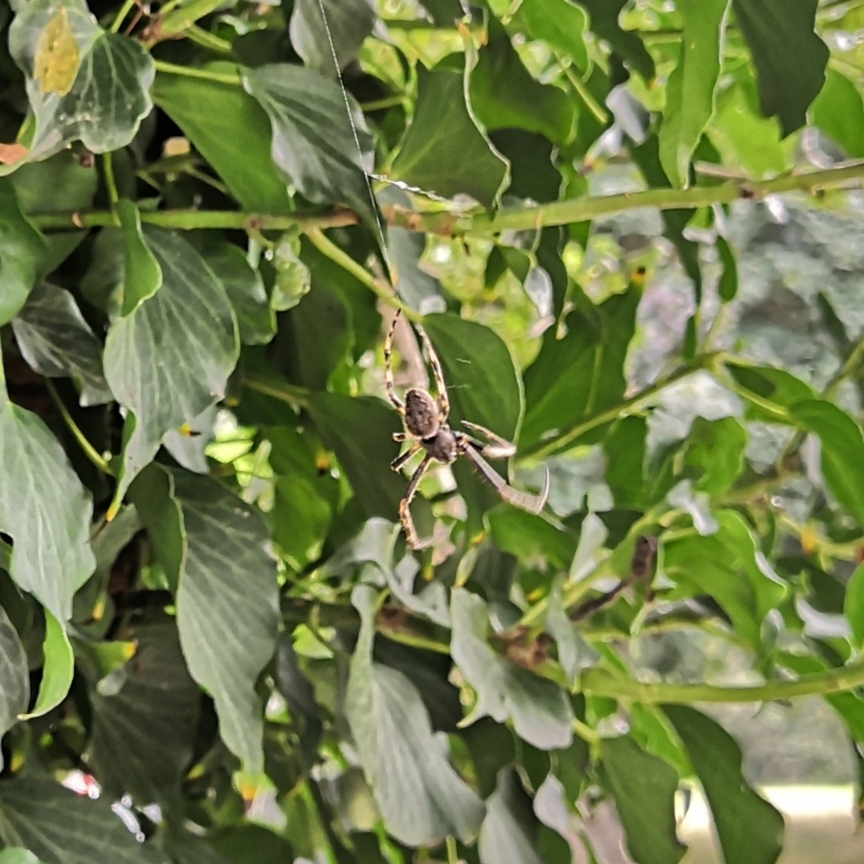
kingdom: Animalia
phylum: Arthropoda
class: Arachnida
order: Araneae
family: Araneidae
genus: Nuctenea
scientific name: Nuctenea umbratica
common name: Toad spider
